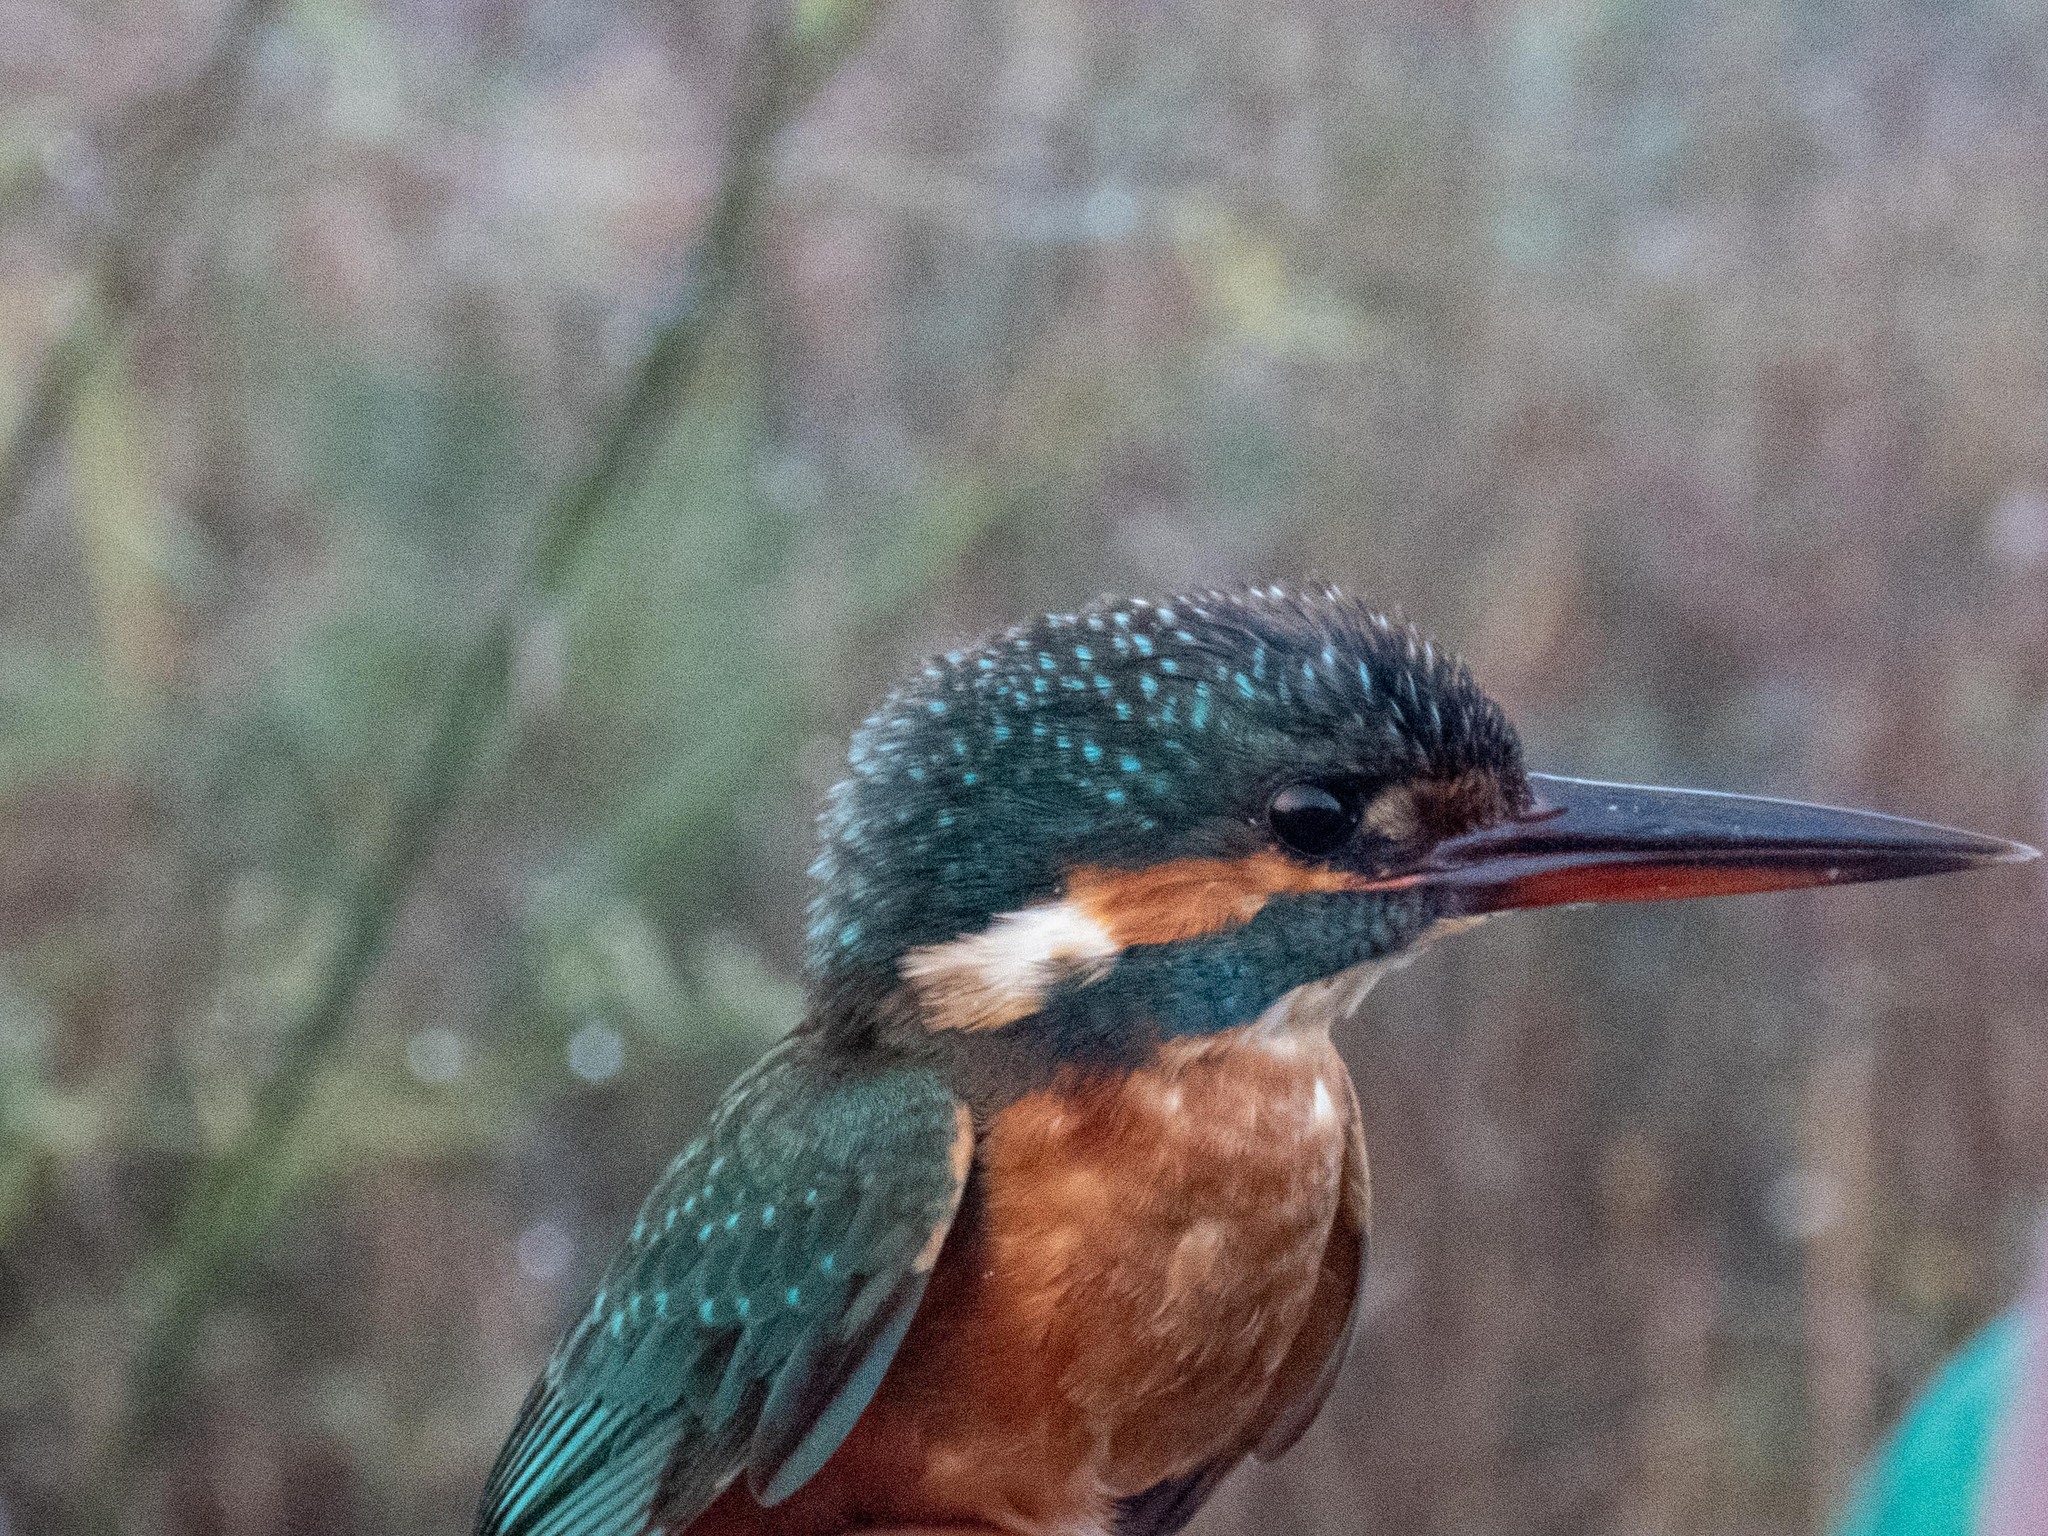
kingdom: Animalia
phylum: Chordata
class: Aves
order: Coraciiformes
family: Alcedinidae
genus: Alcedo
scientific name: Alcedo atthis
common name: Common kingfisher
